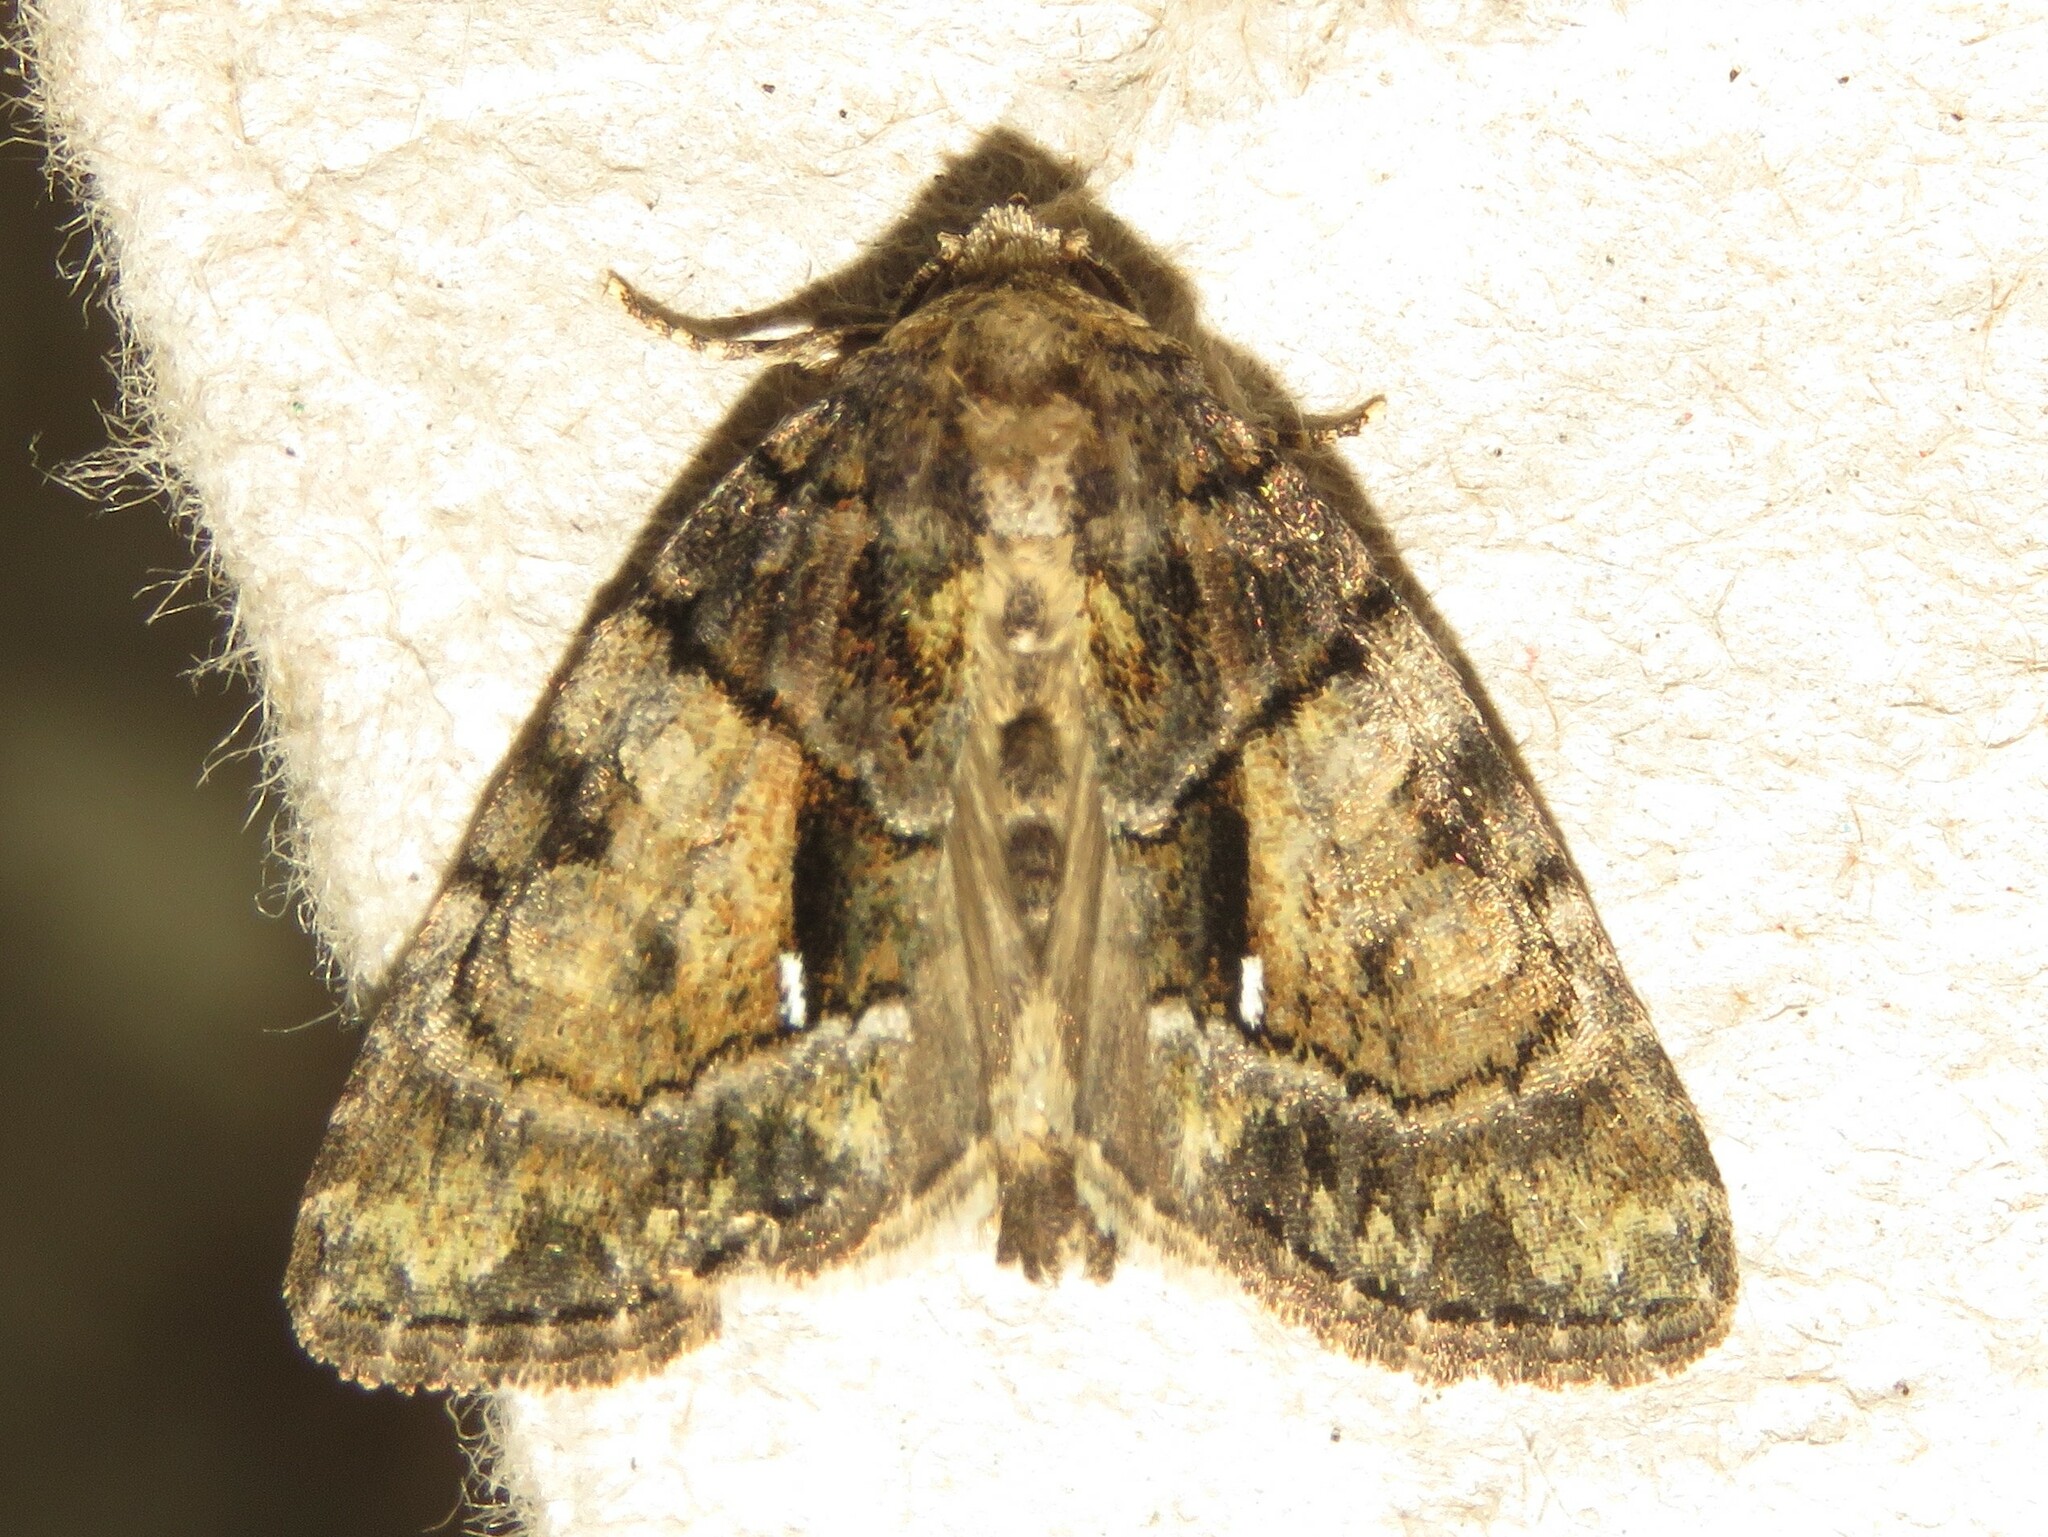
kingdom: Animalia
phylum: Arthropoda
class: Insecta
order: Lepidoptera
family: Noctuidae
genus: Chytonix
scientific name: Chytonix palliatricula
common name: Cloaked marvel
